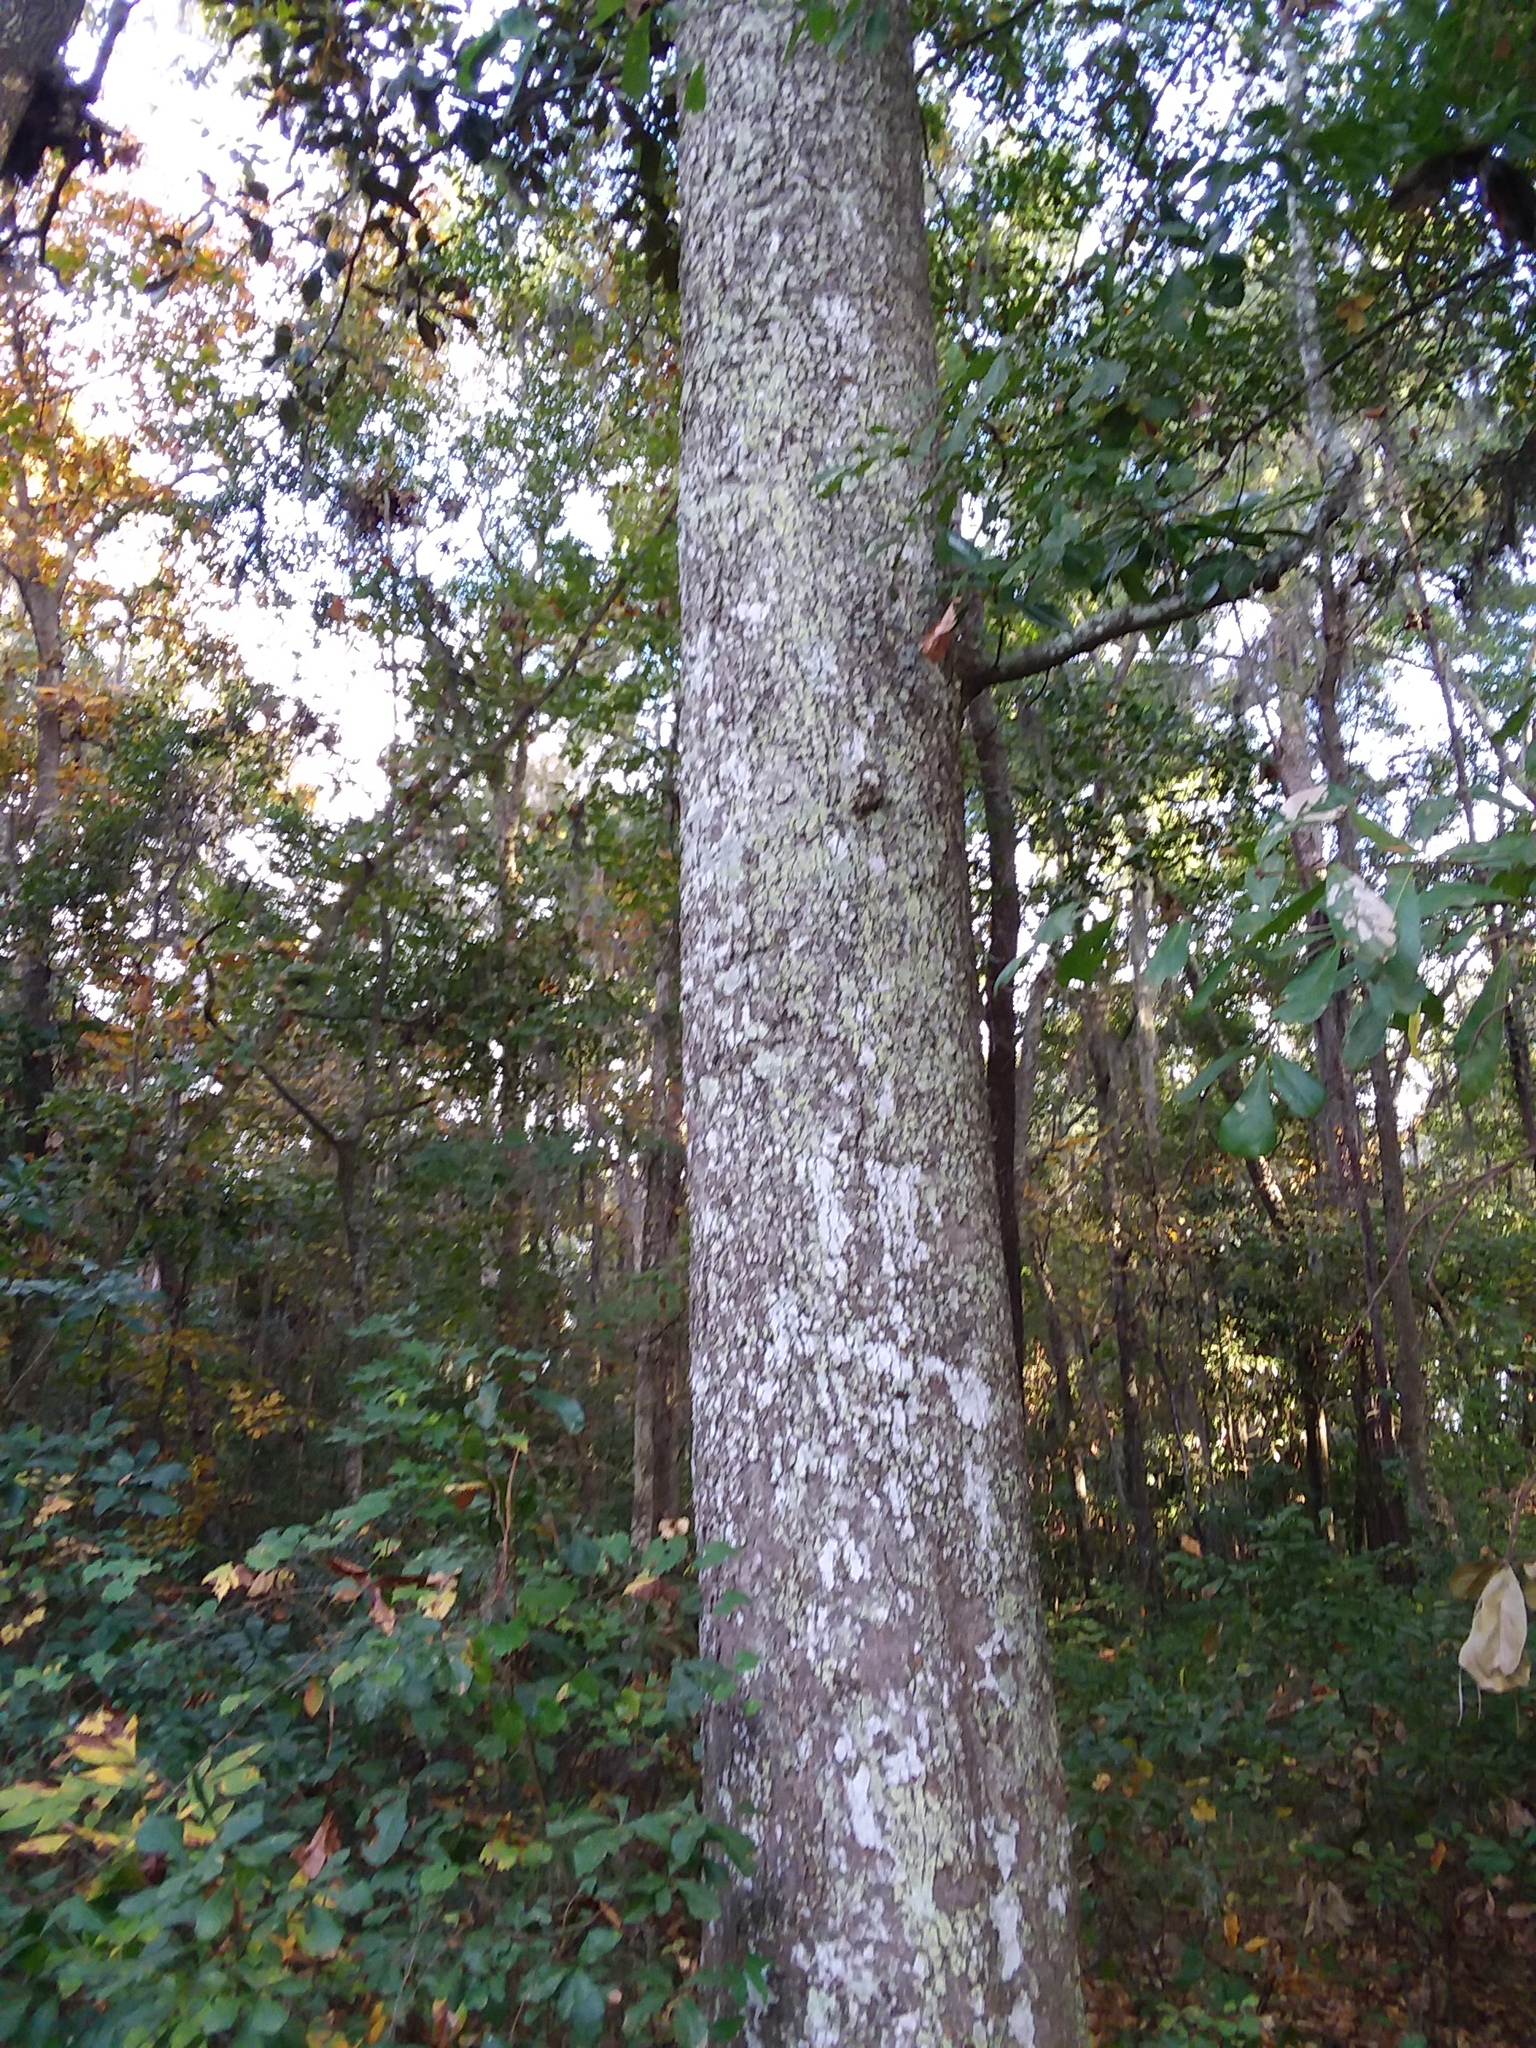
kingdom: Plantae
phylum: Tracheophyta
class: Magnoliopsida
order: Magnoliales
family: Magnoliaceae
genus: Magnolia
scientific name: Magnolia grandiflora
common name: Southern magnolia
